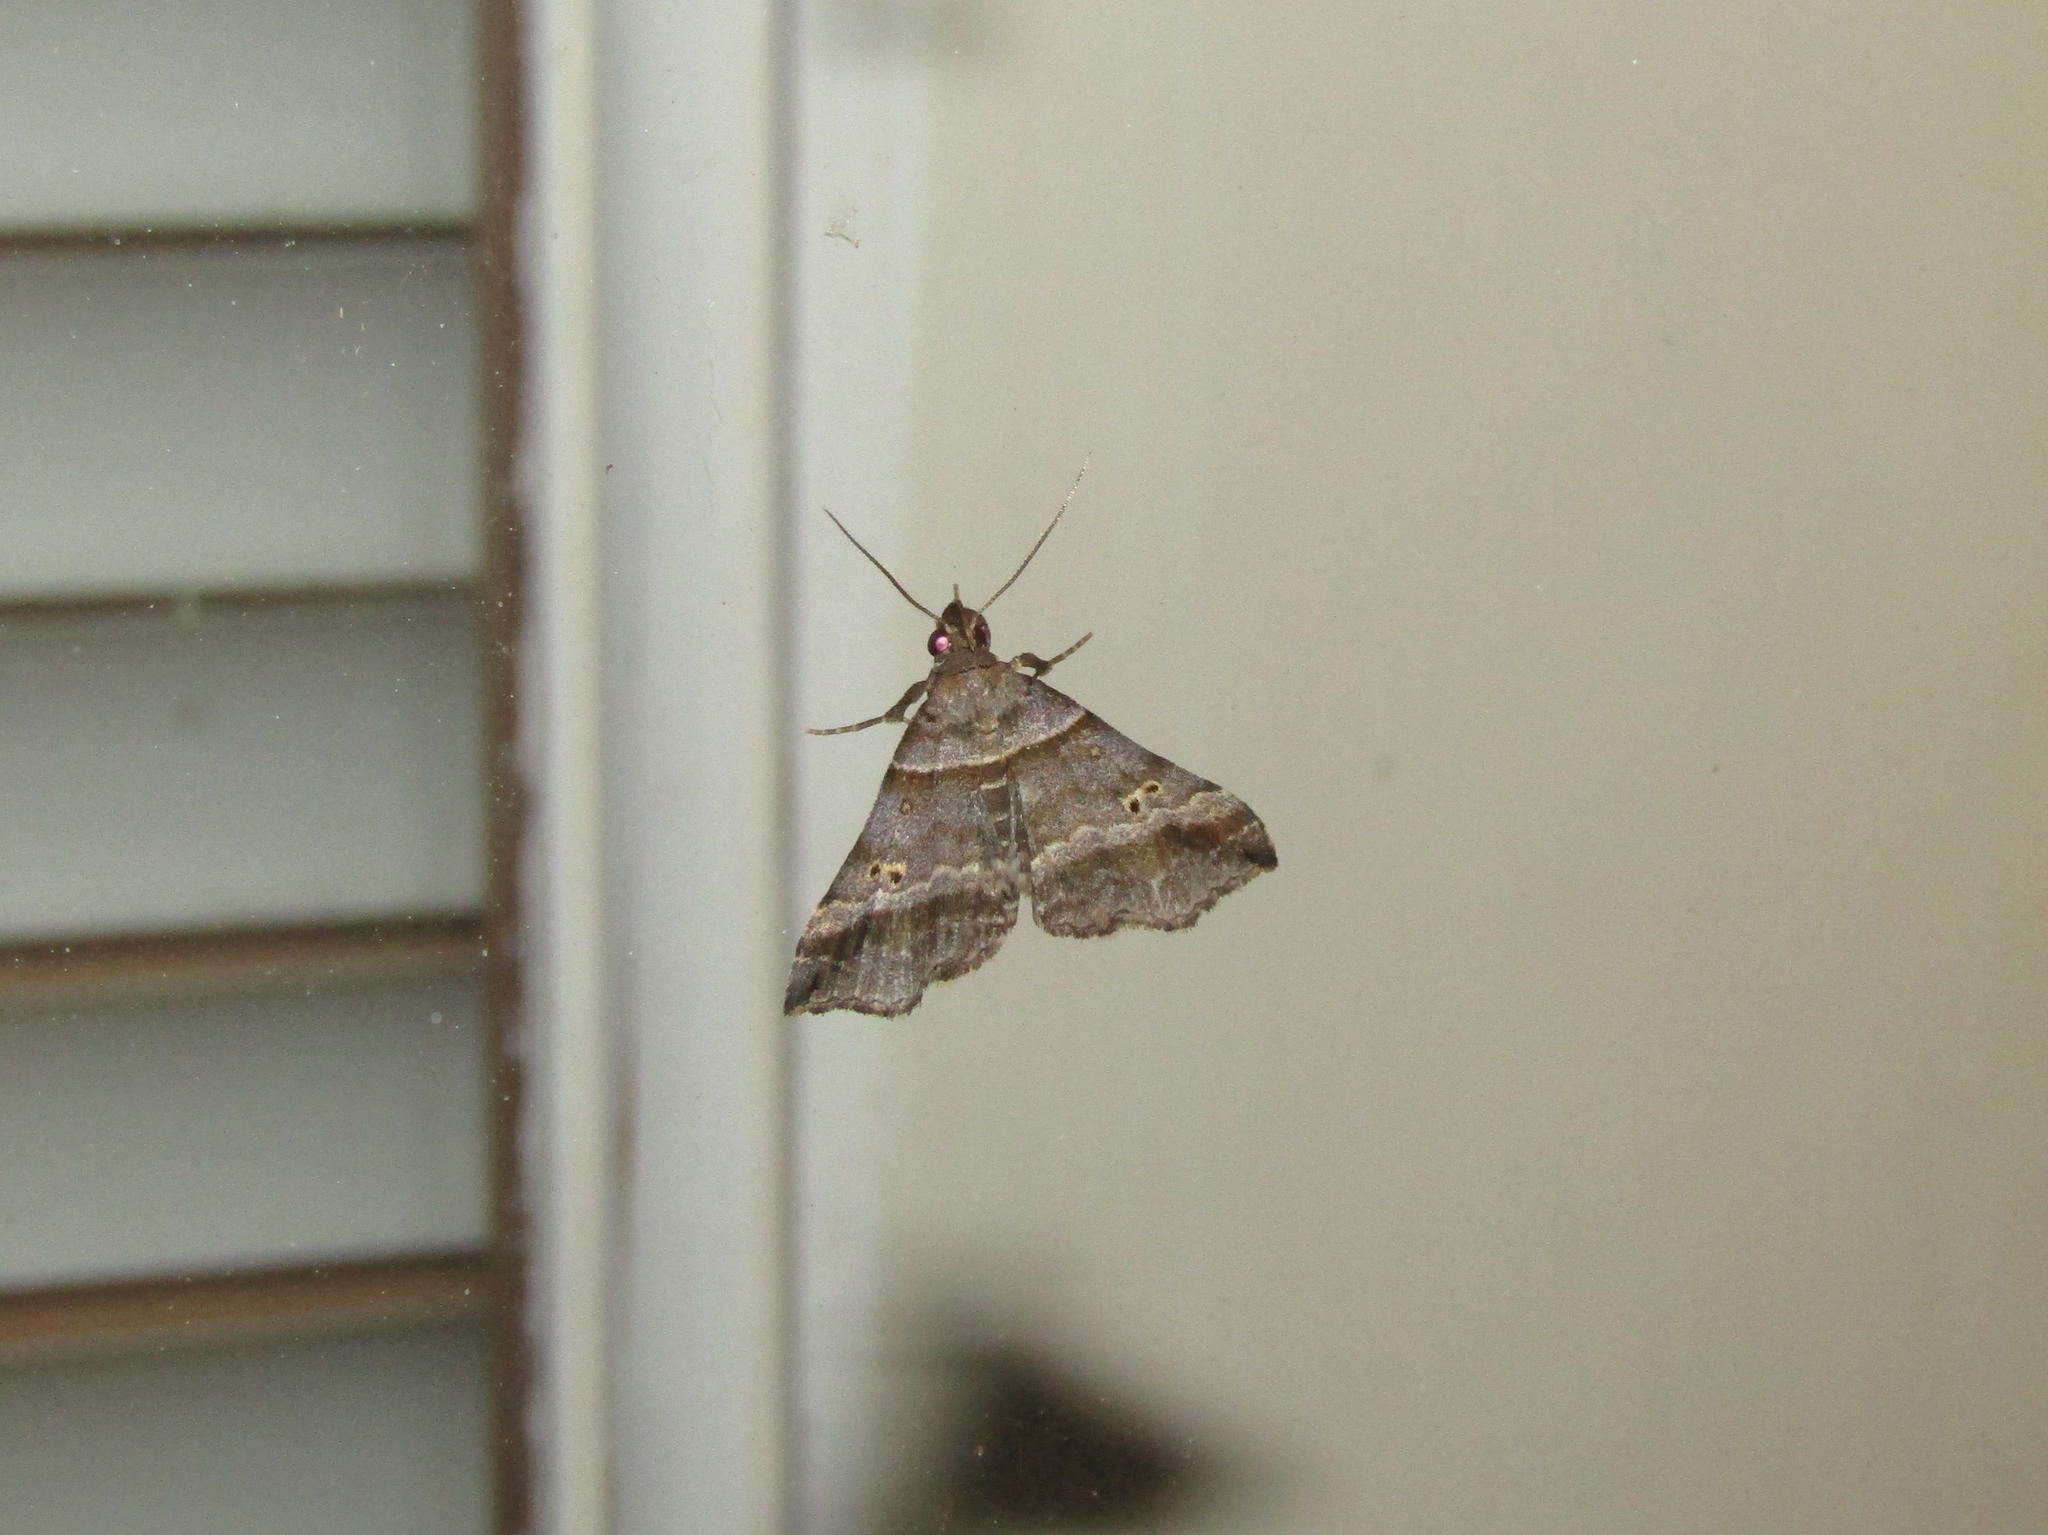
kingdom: Animalia
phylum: Arthropoda
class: Insecta
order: Lepidoptera
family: Erebidae
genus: Phaeolita
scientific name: Phaeolita pyramusalis
